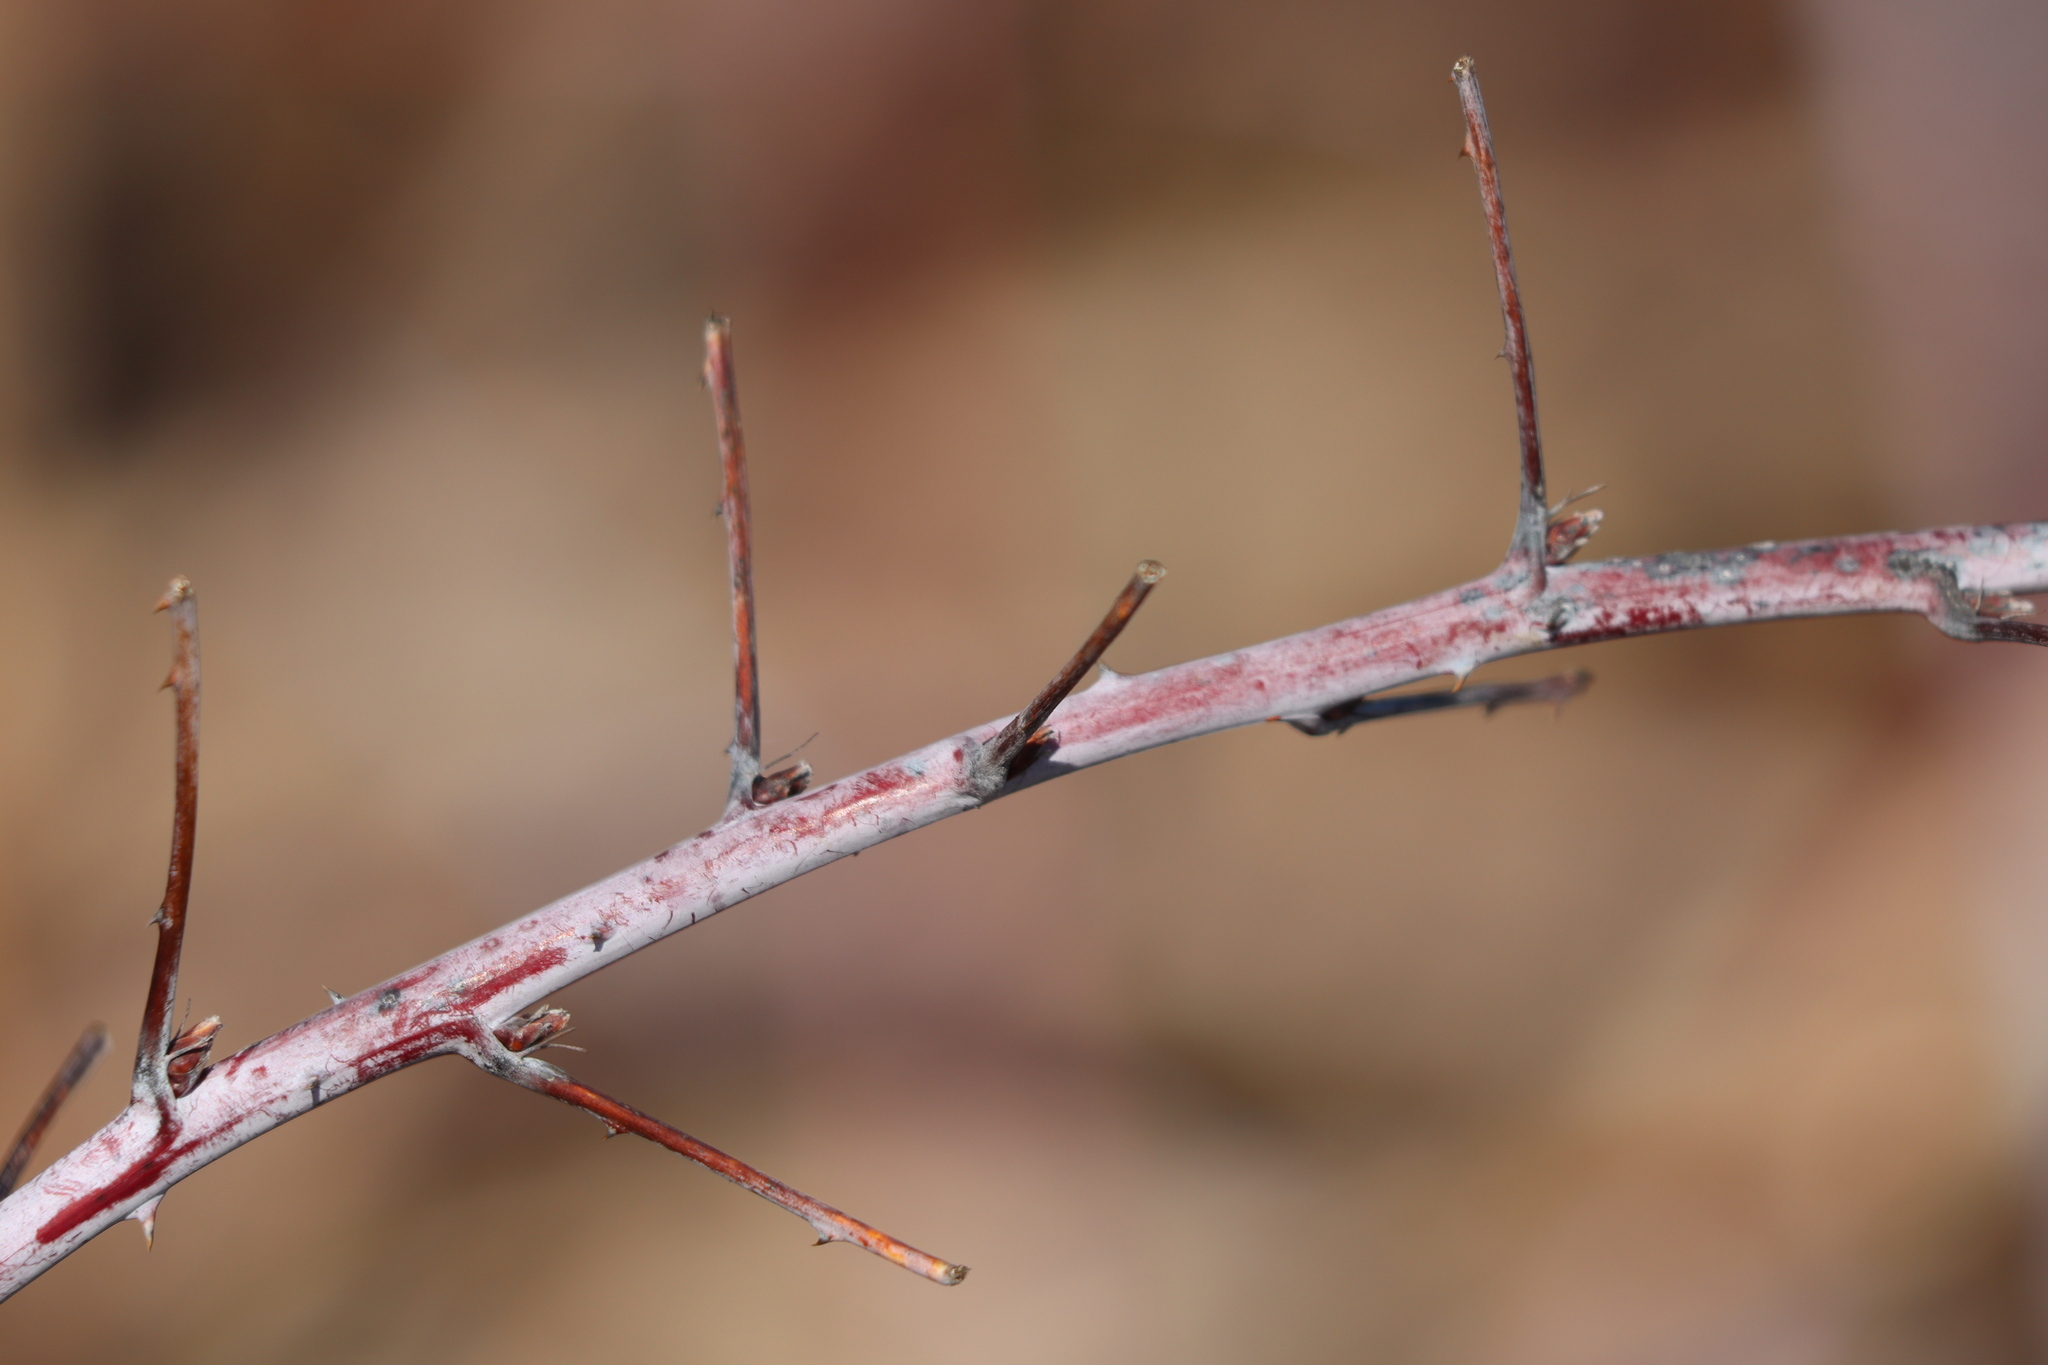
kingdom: Plantae
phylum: Tracheophyta
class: Magnoliopsida
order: Rosales
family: Rosaceae
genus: Rubus
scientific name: Rubus occidentalis
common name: Black raspberry
